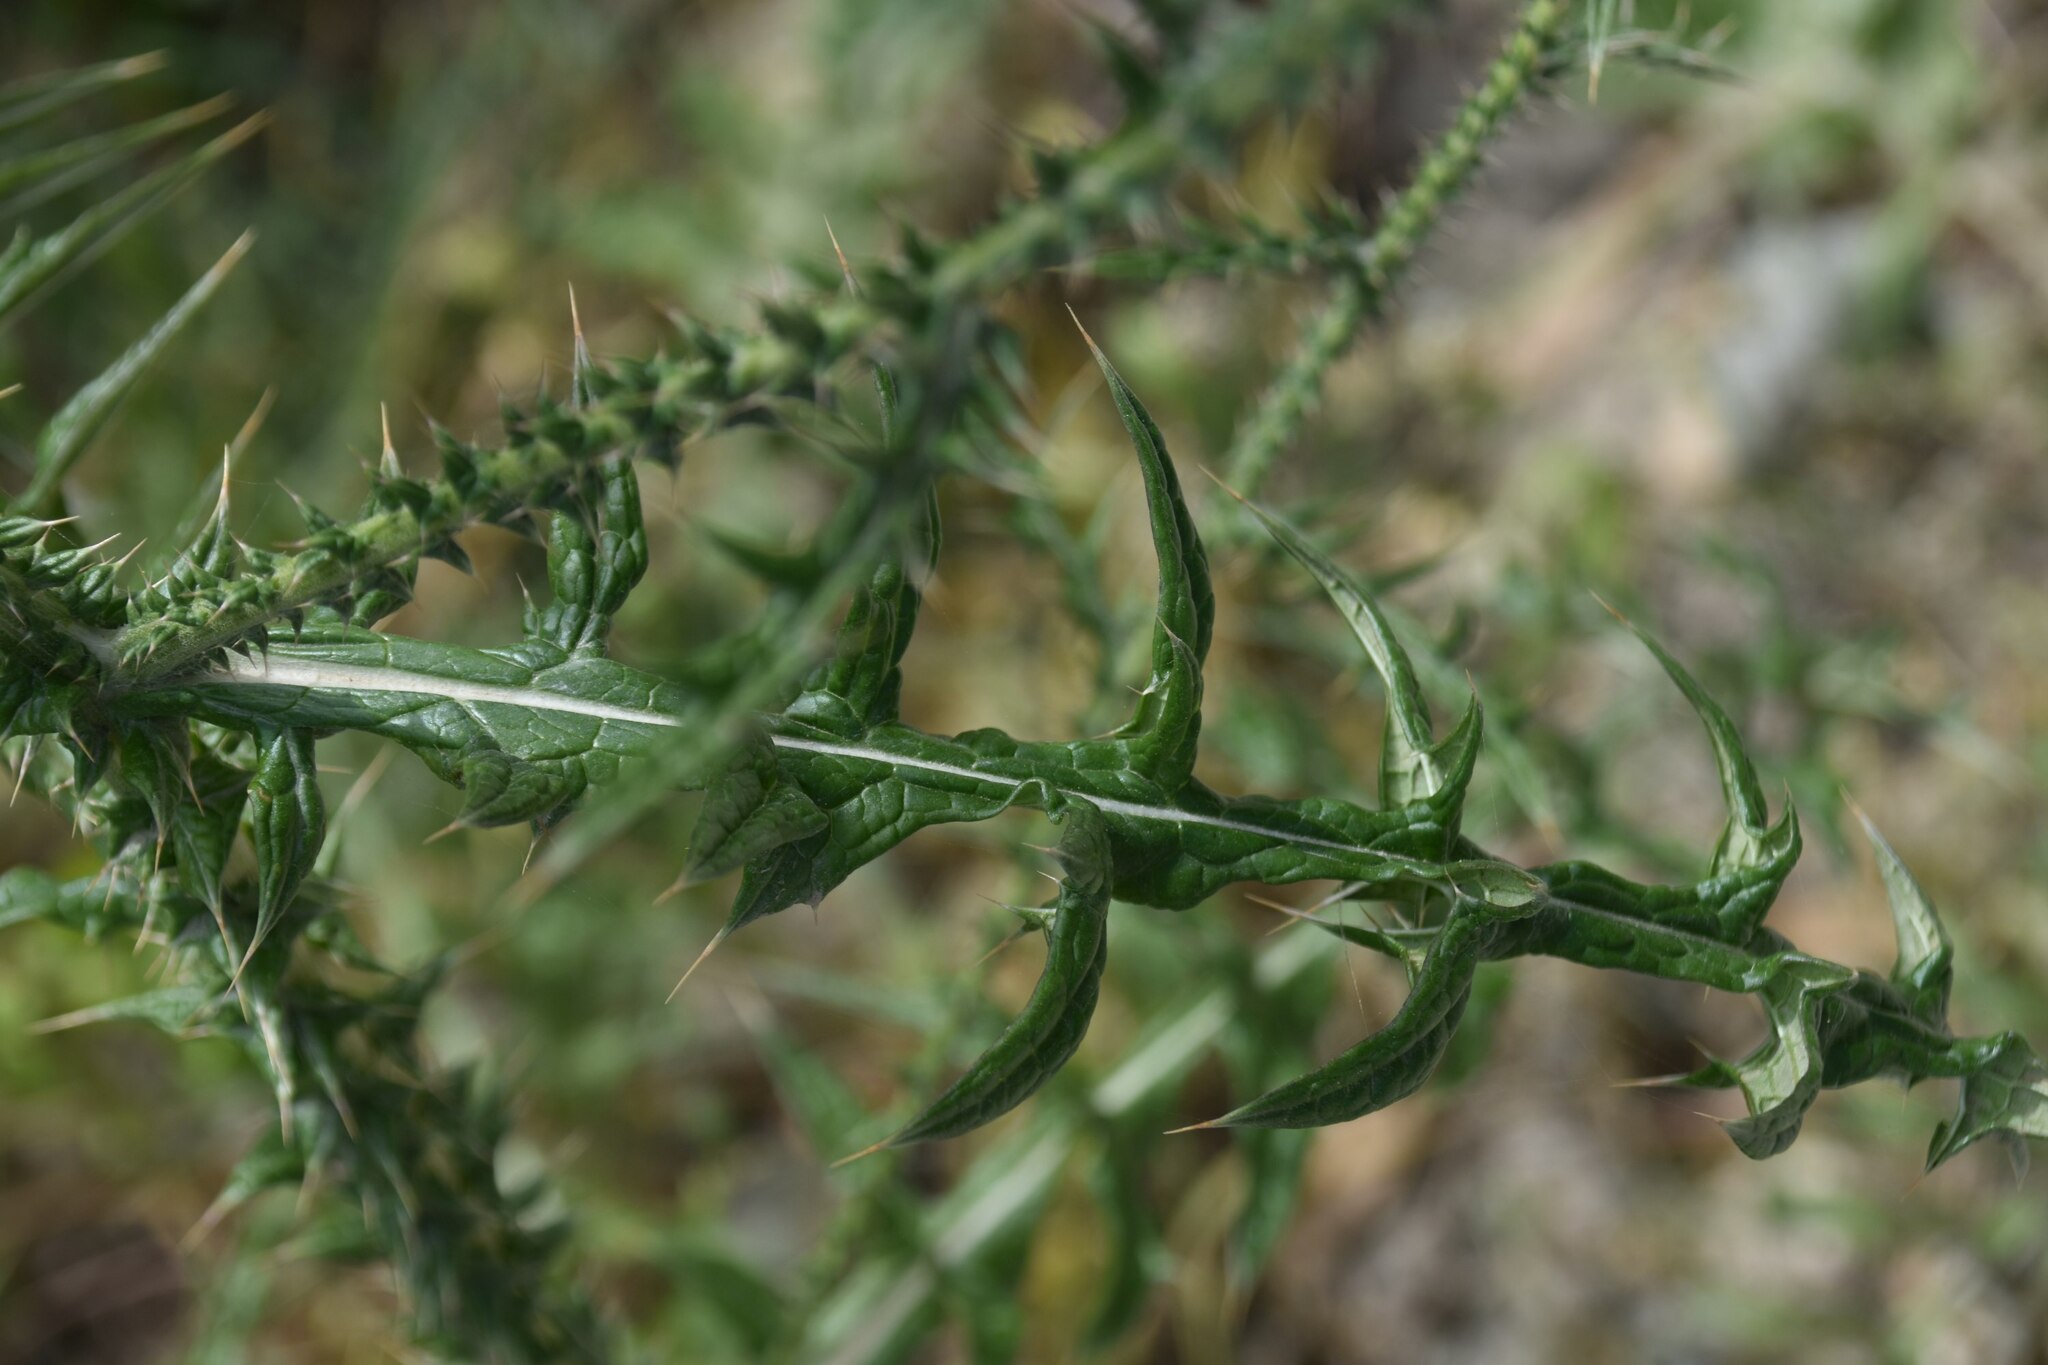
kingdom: Plantae
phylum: Tracheophyta
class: Magnoliopsida
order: Asterales
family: Asteraceae
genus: Onopordum
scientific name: Onopordum cyprium
